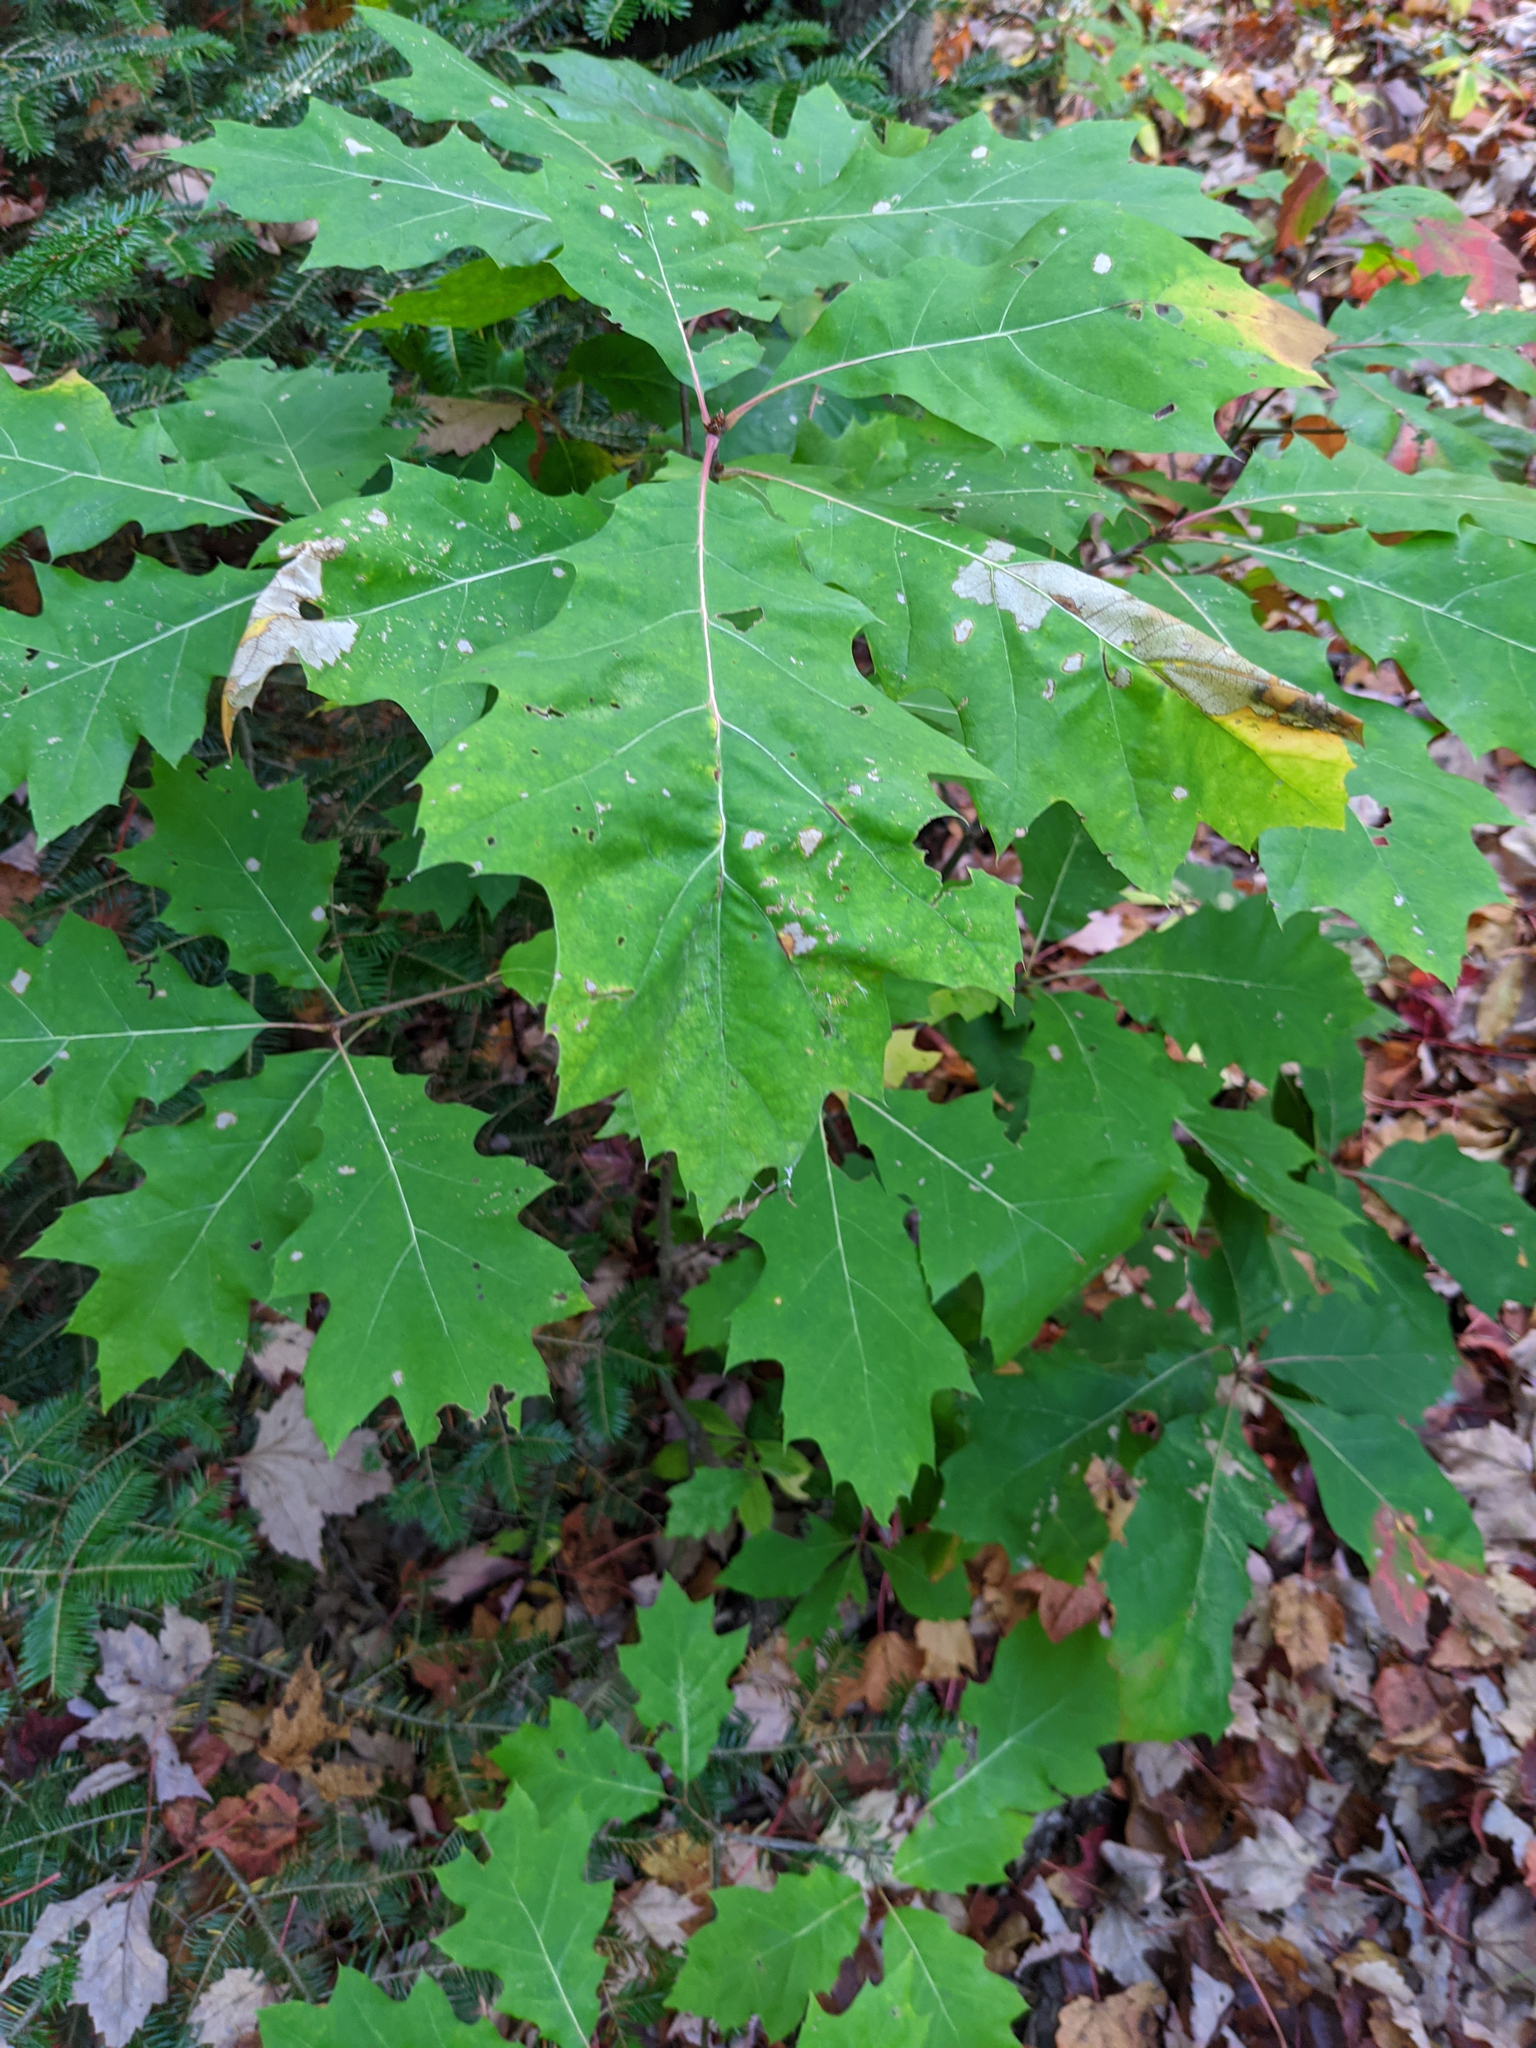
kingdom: Plantae
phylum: Tracheophyta
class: Magnoliopsida
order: Fagales
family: Fagaceae
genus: Quercus
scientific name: Quercus rubra
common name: Red oak
